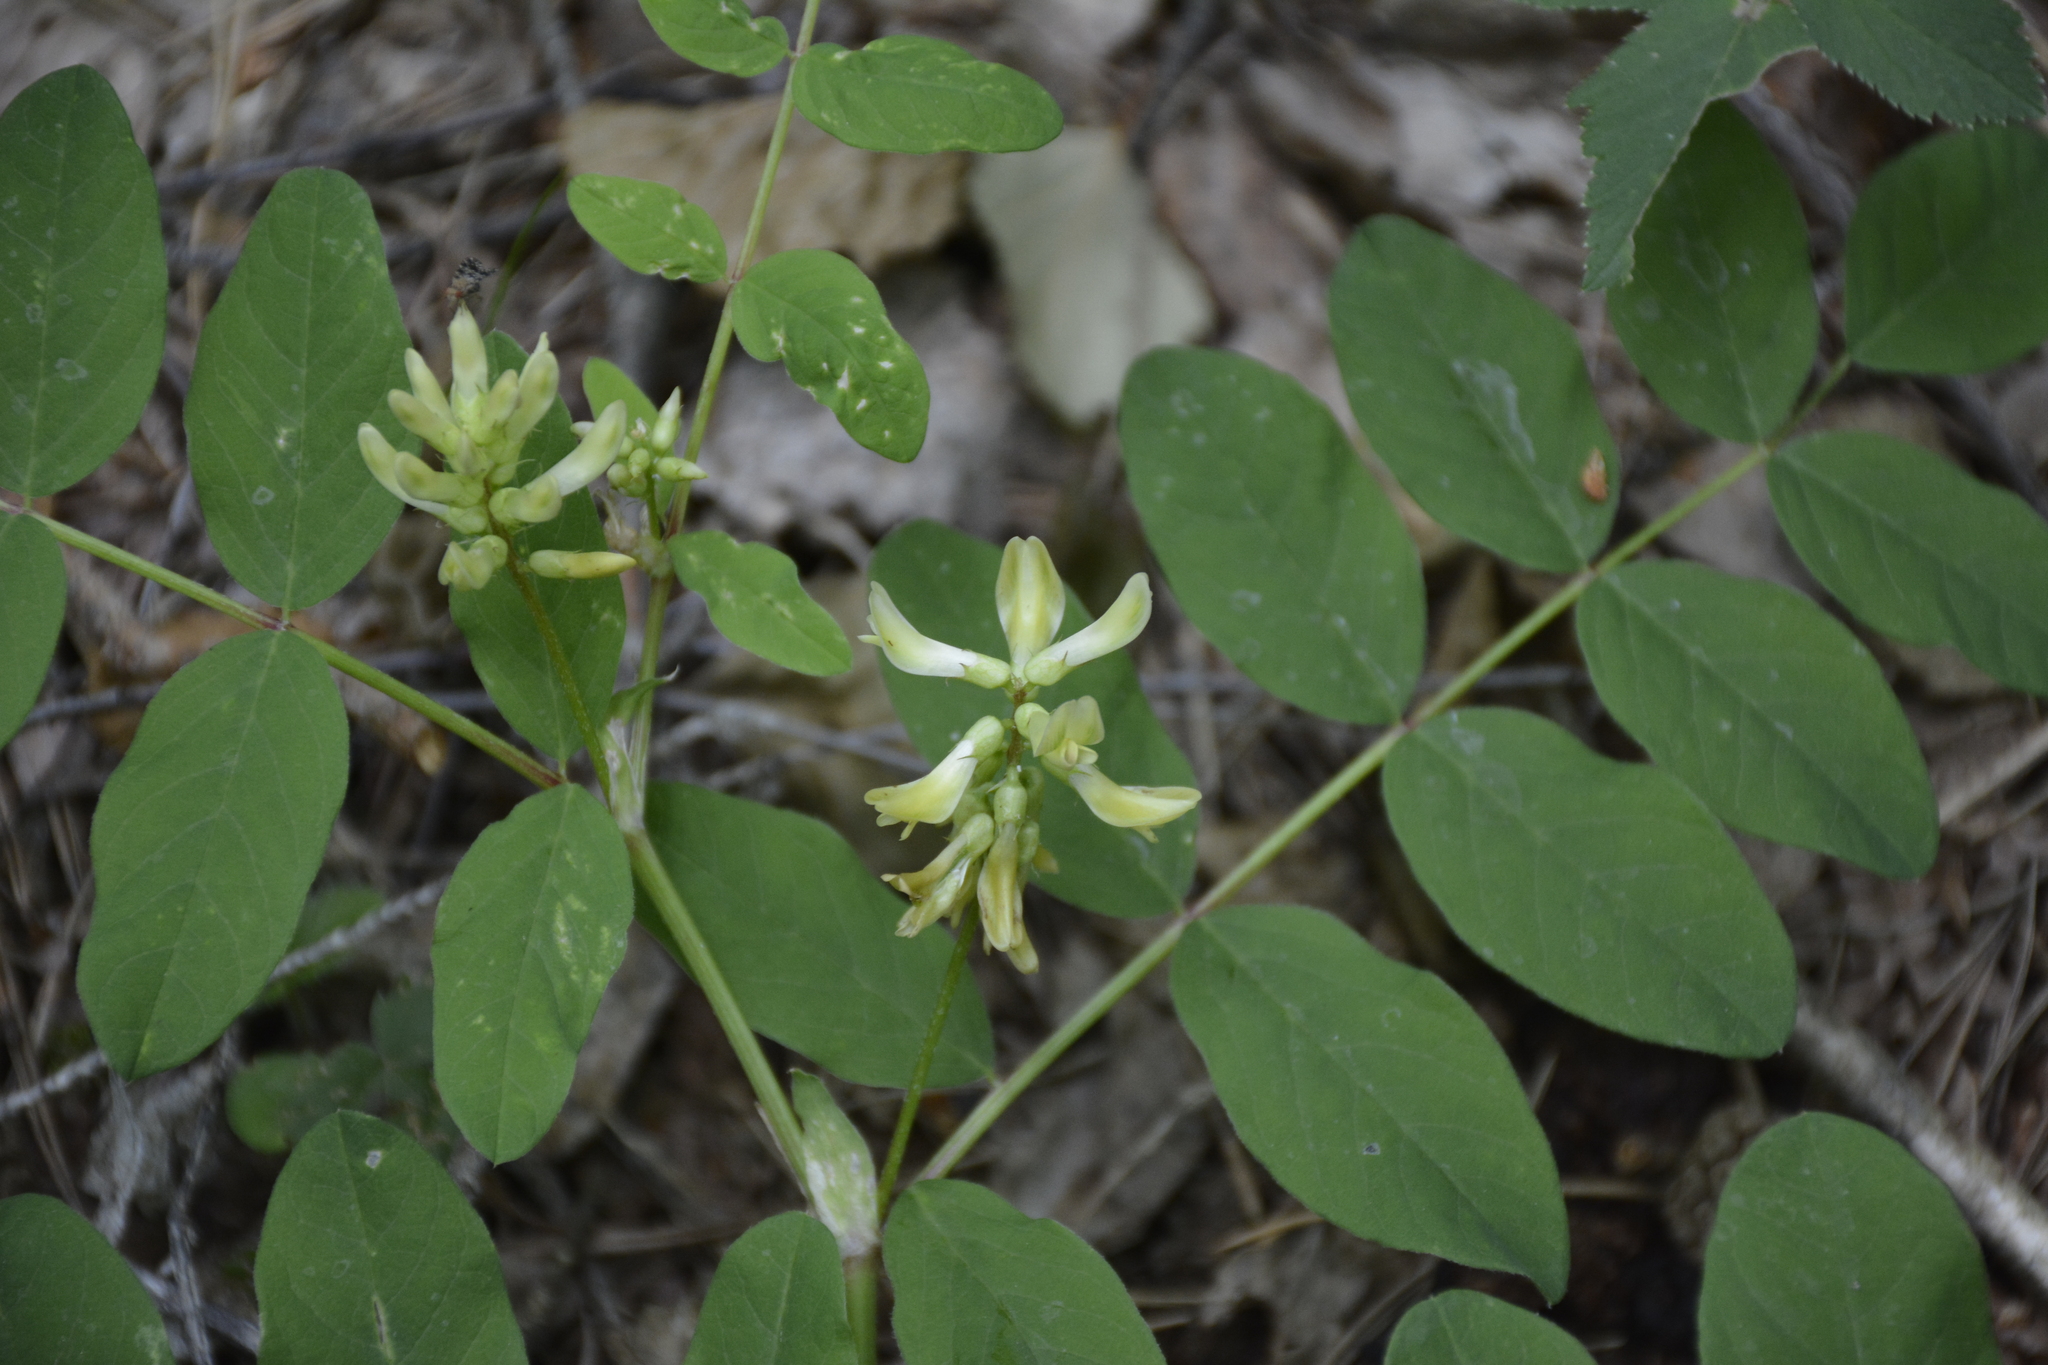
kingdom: Plantae
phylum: Tracheophyta
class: Magnoliopsida
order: Fabales
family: Fabaceae
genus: Astragalus
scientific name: Astragalus glycyphyllos
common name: Wild liquorice
